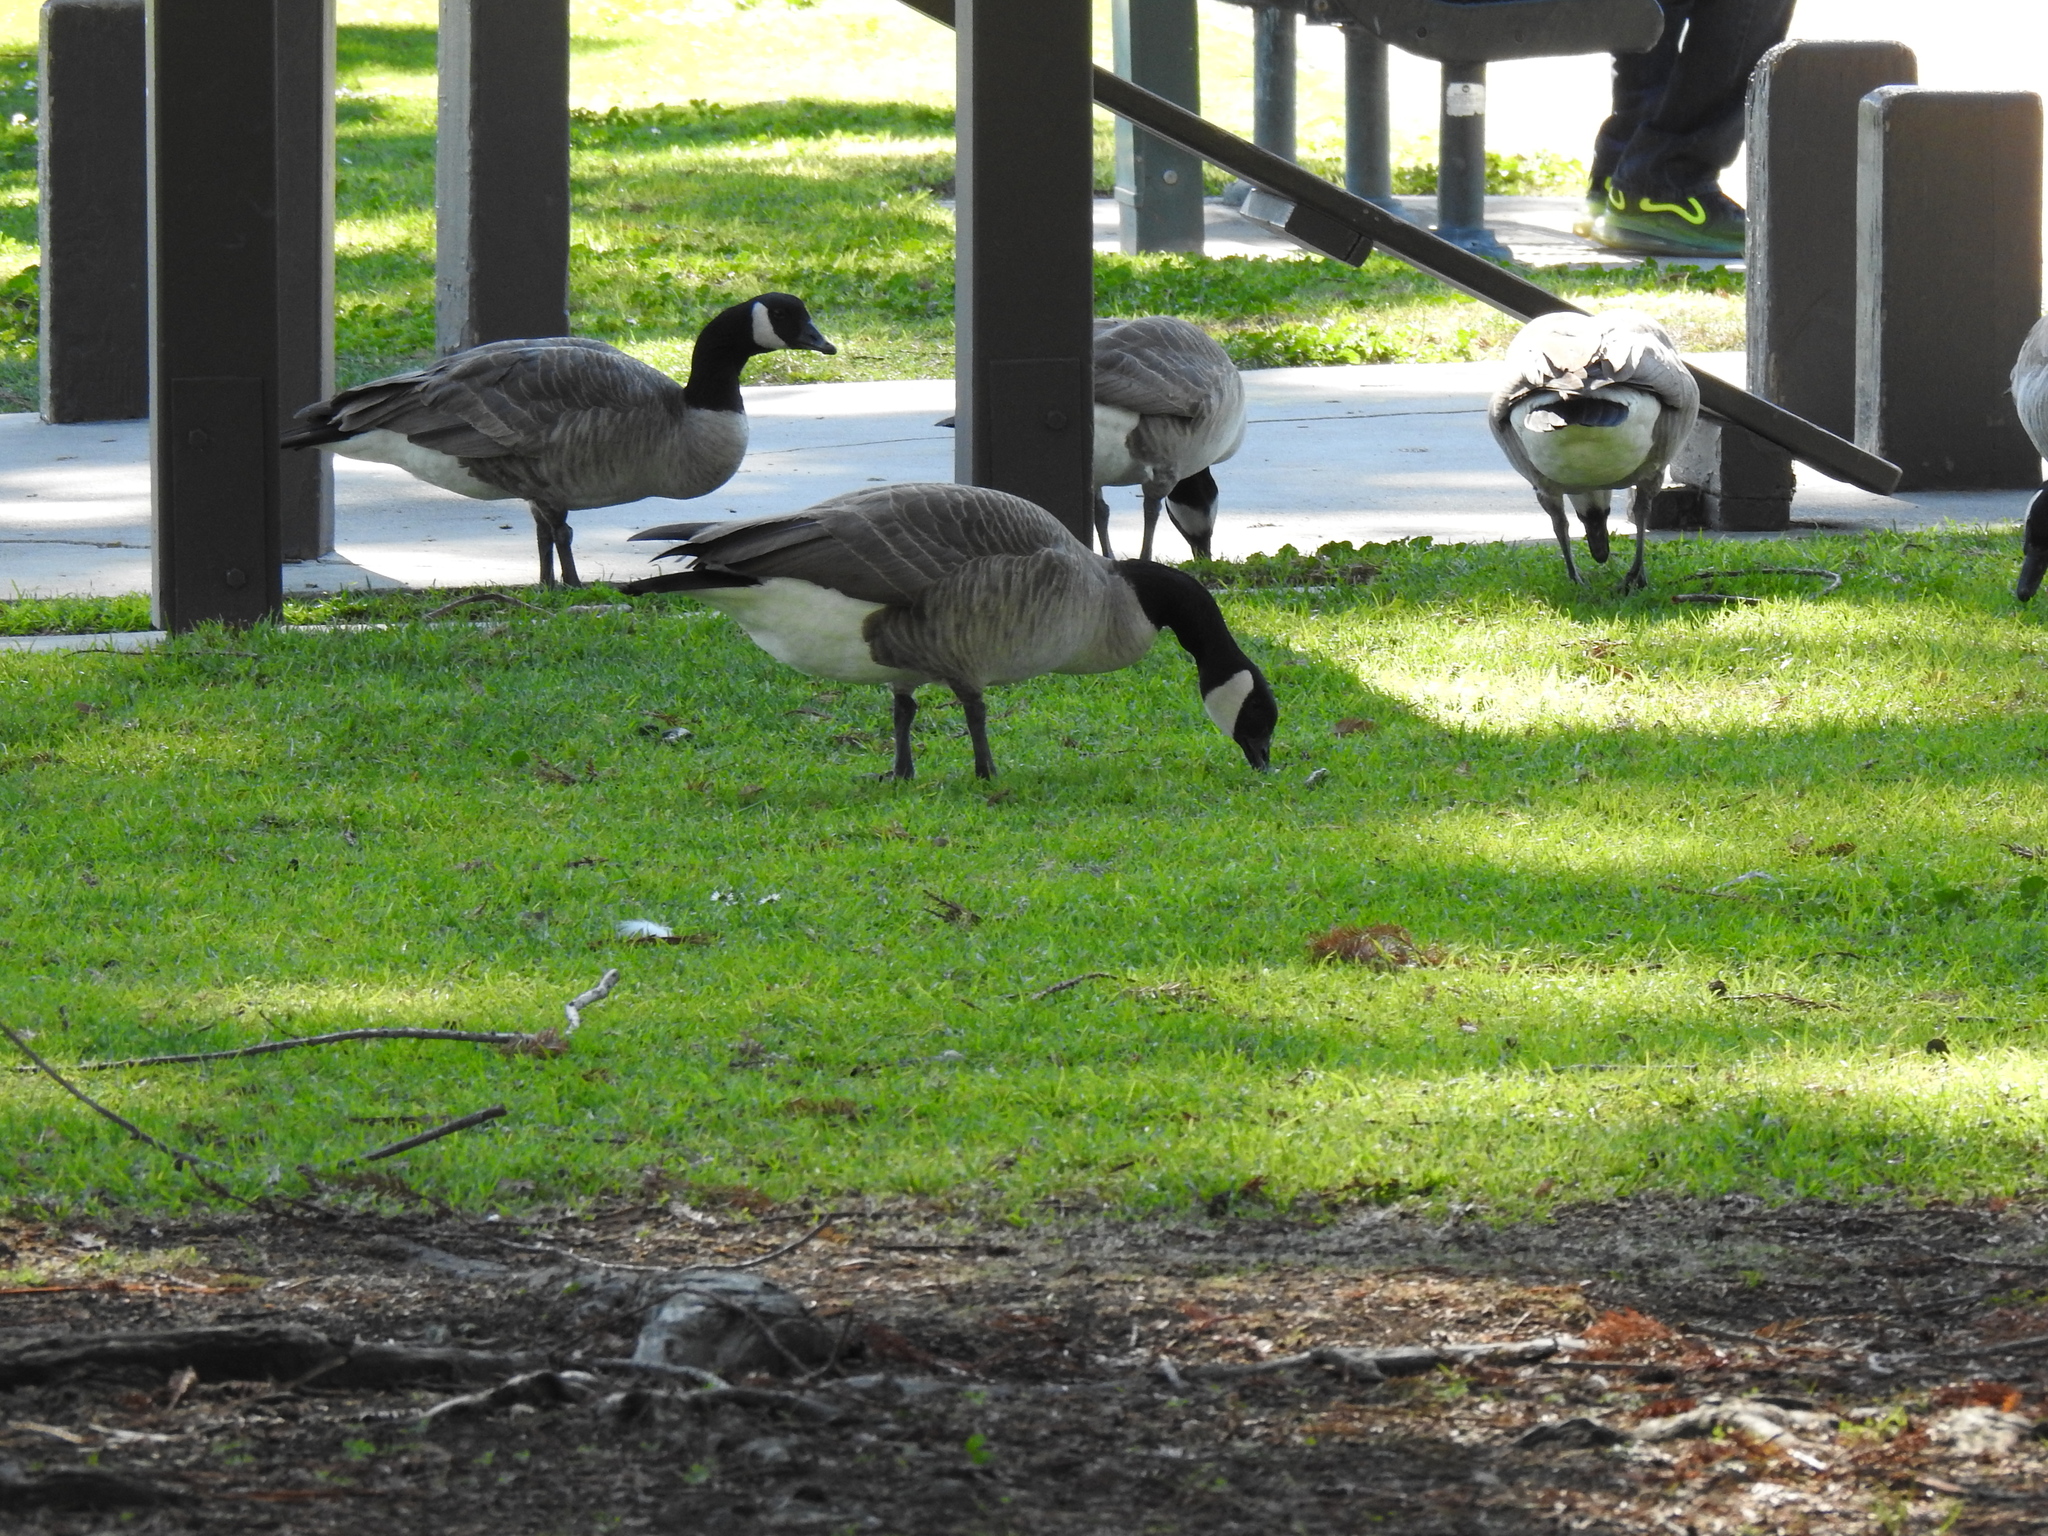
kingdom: Animalia
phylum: Chordata
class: Aves
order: Anseriformes
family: Anatidae
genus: Branta
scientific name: Branta canadensis
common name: Canada goose
